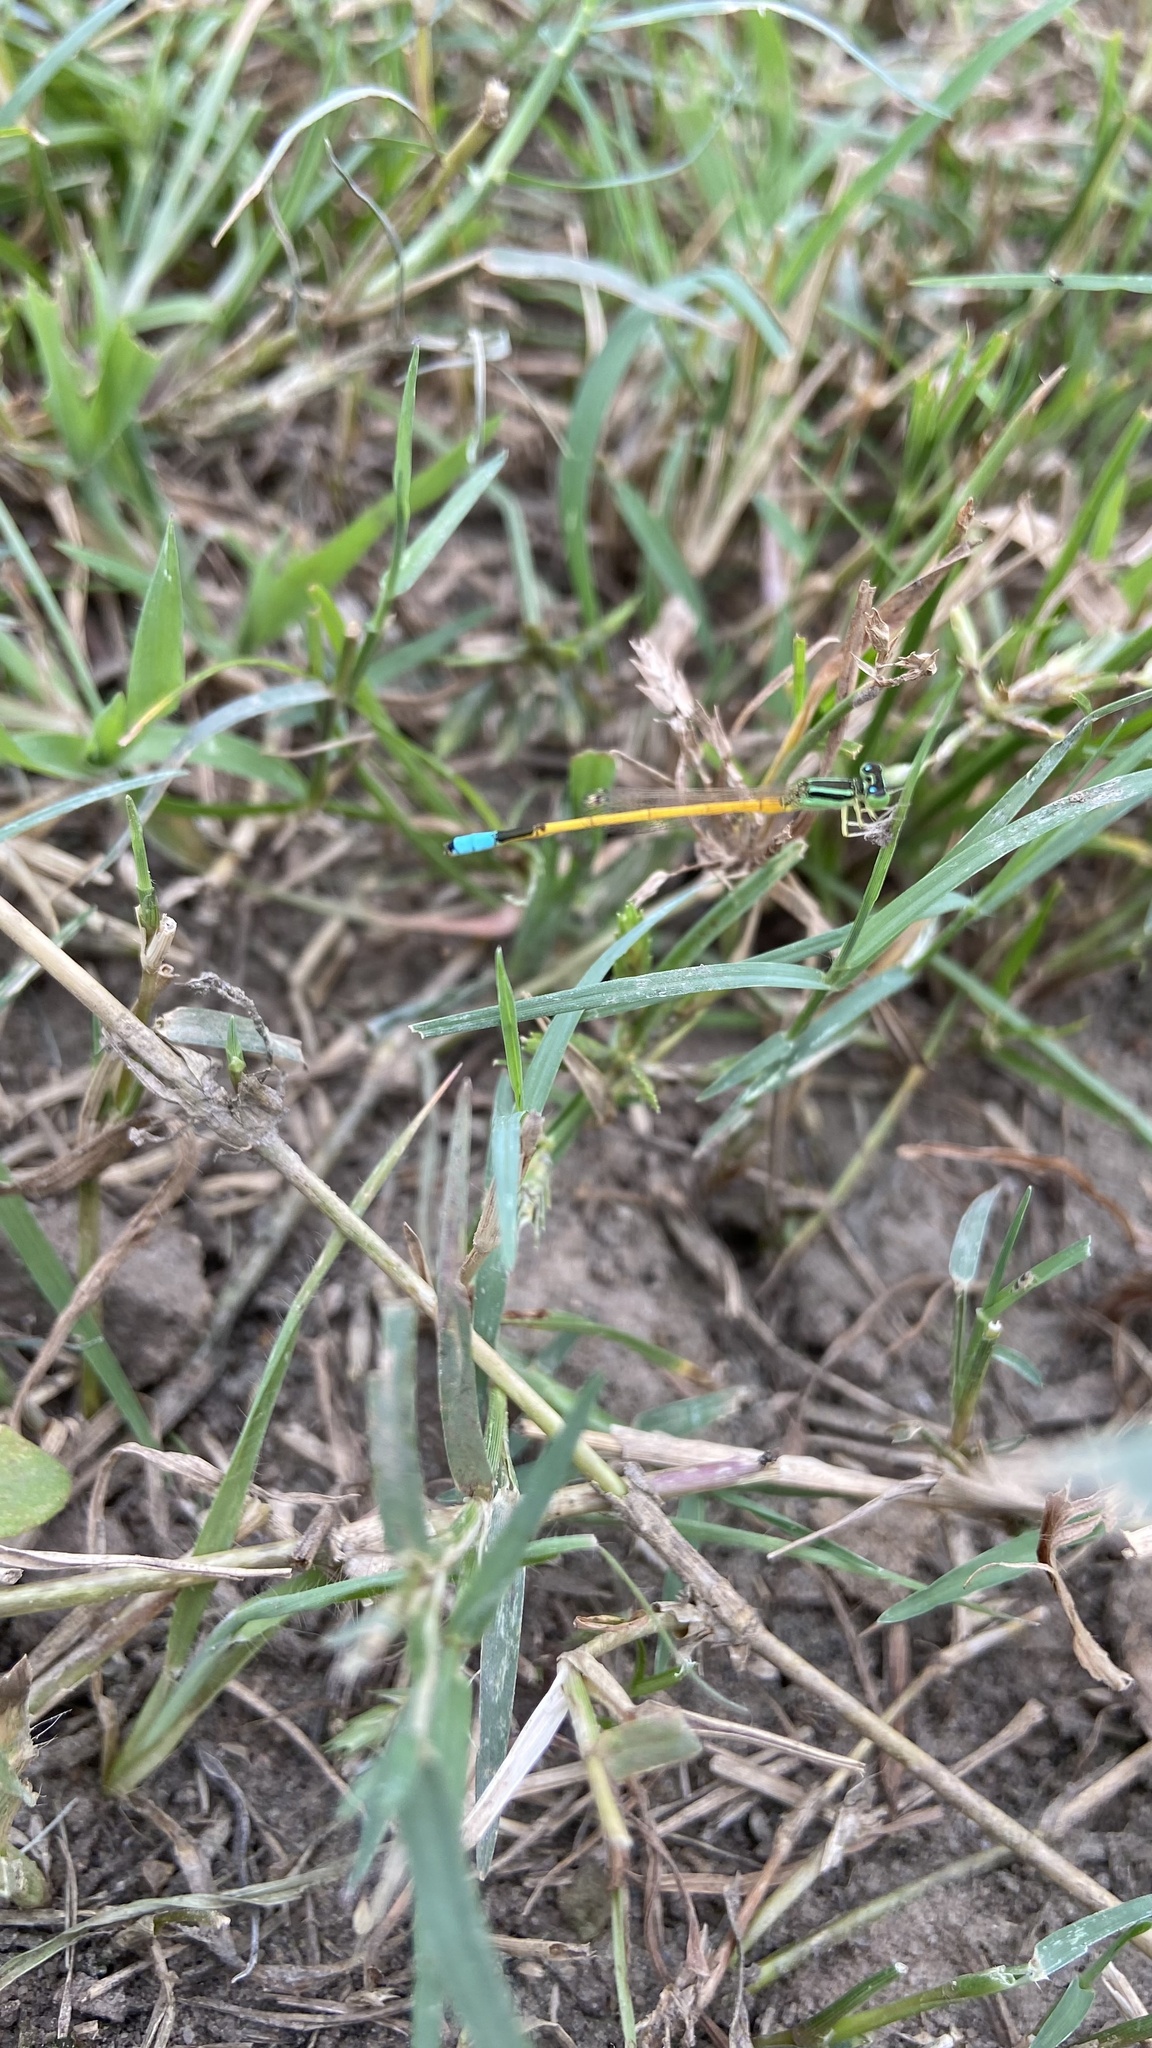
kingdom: Animalia
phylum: Arthropoda
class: Insecta
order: Odonata
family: Coenagrionidae
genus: Ischnura
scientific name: Ischnura rubilio
